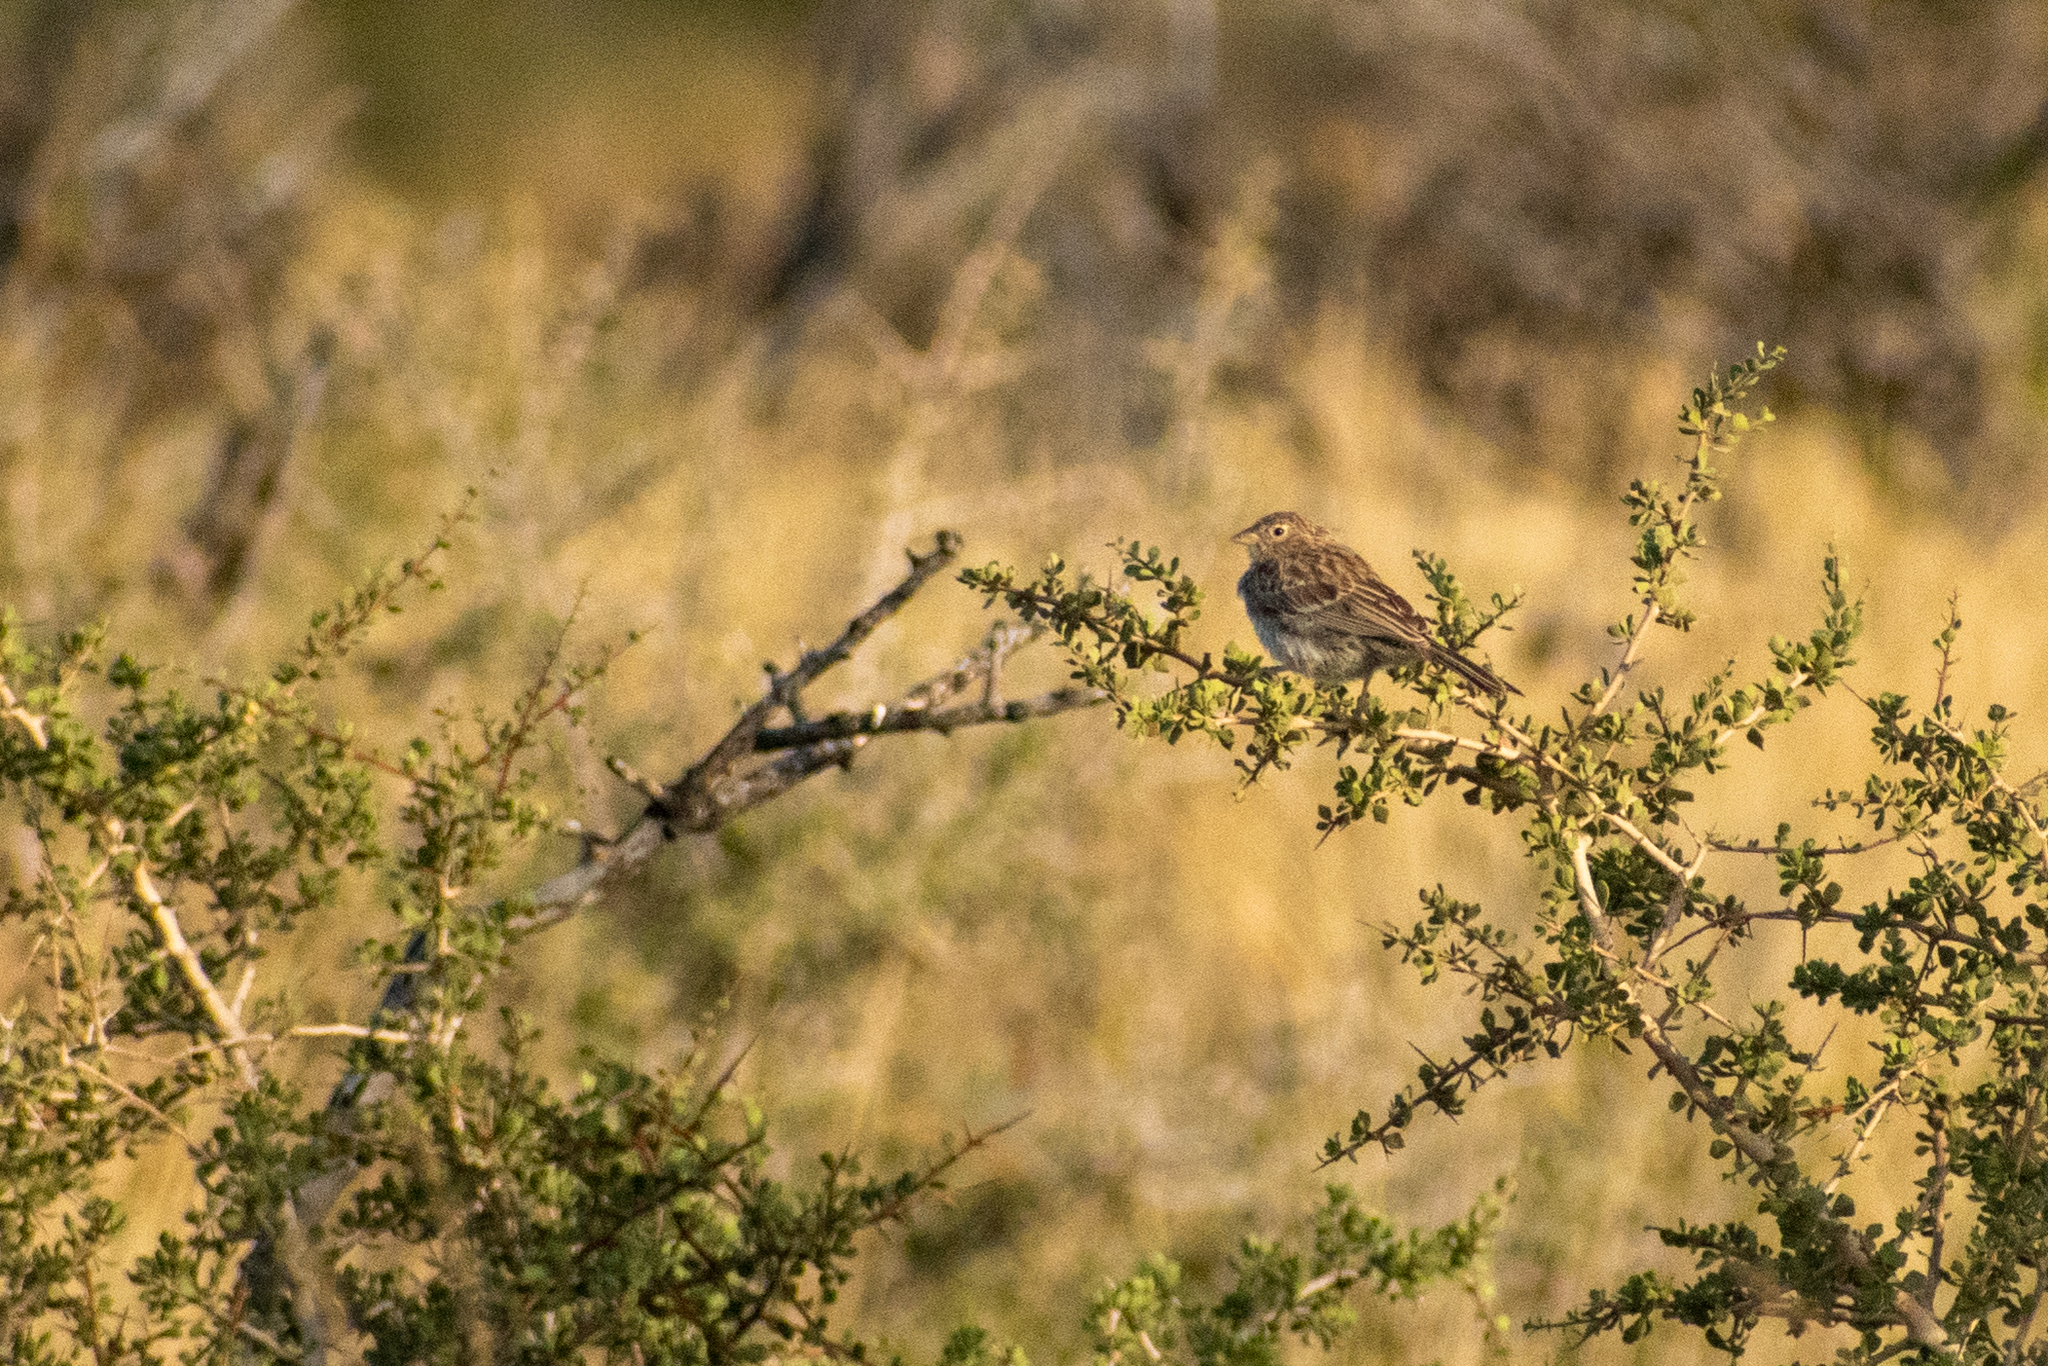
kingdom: Animalia
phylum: Chordata
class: Aves
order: Passeriformes
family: Thraupidae
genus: Porphyrospiza
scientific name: Porphyrospiza carbonaria
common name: Carbon finch
